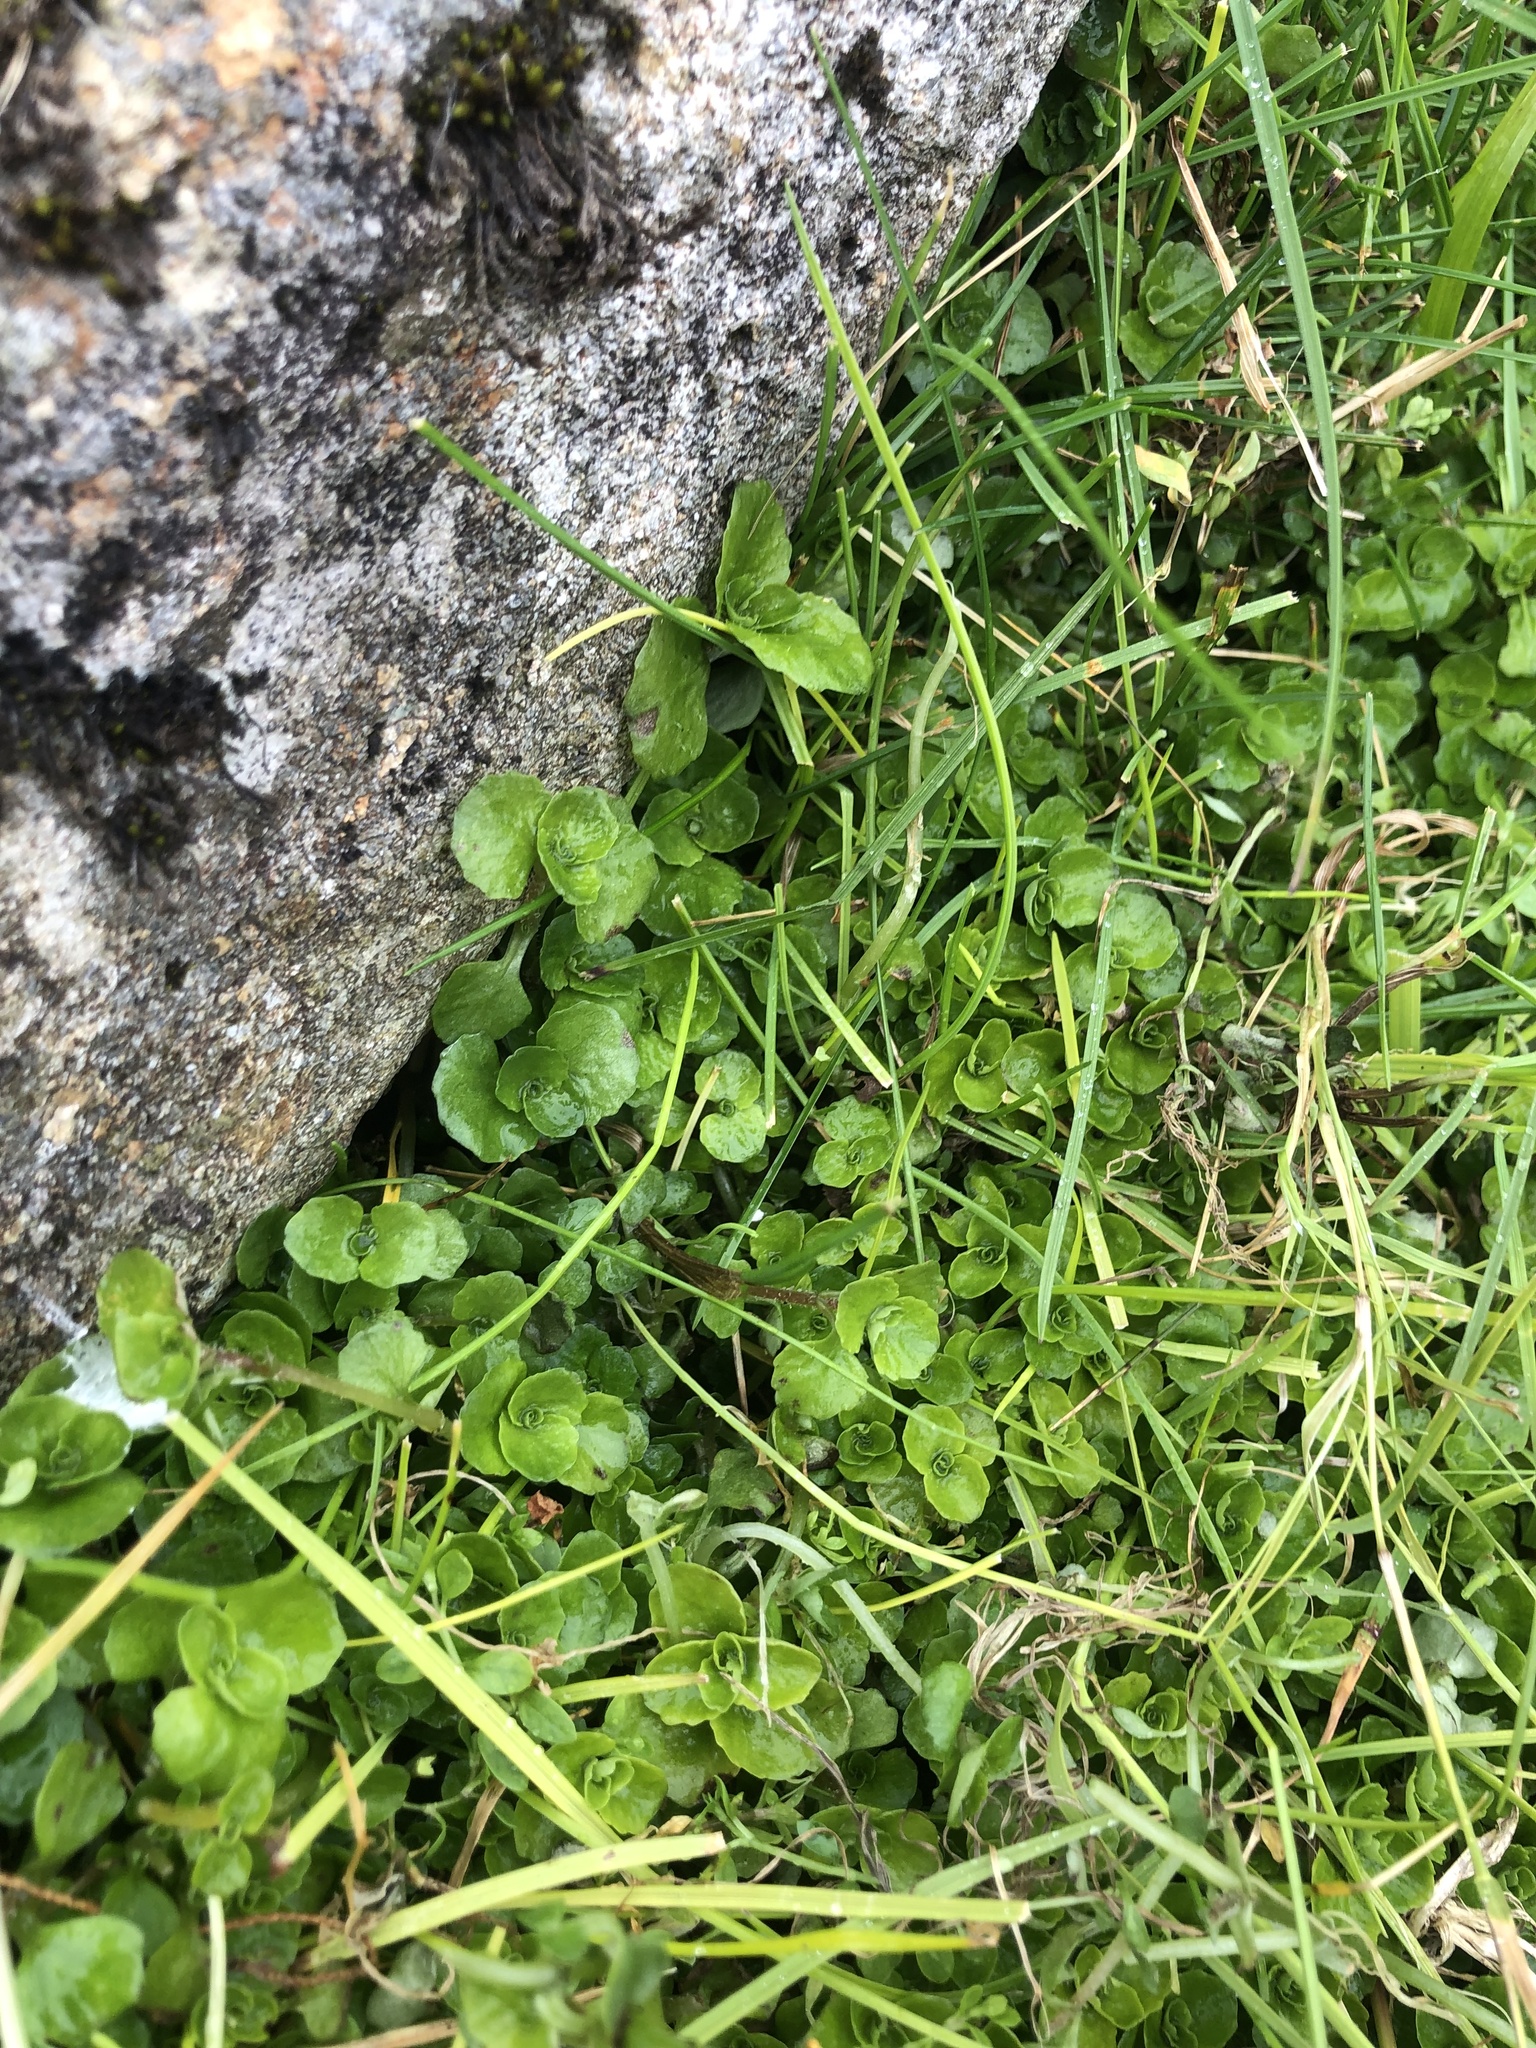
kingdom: Plantae
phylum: Tracheophyta
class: Magnoliopsida
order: Saxifragales
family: Saxifragaceae
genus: Chrysosplenium
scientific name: Chrysosplenium oppositifolium
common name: Opposite-leaved golden-saxifrage
